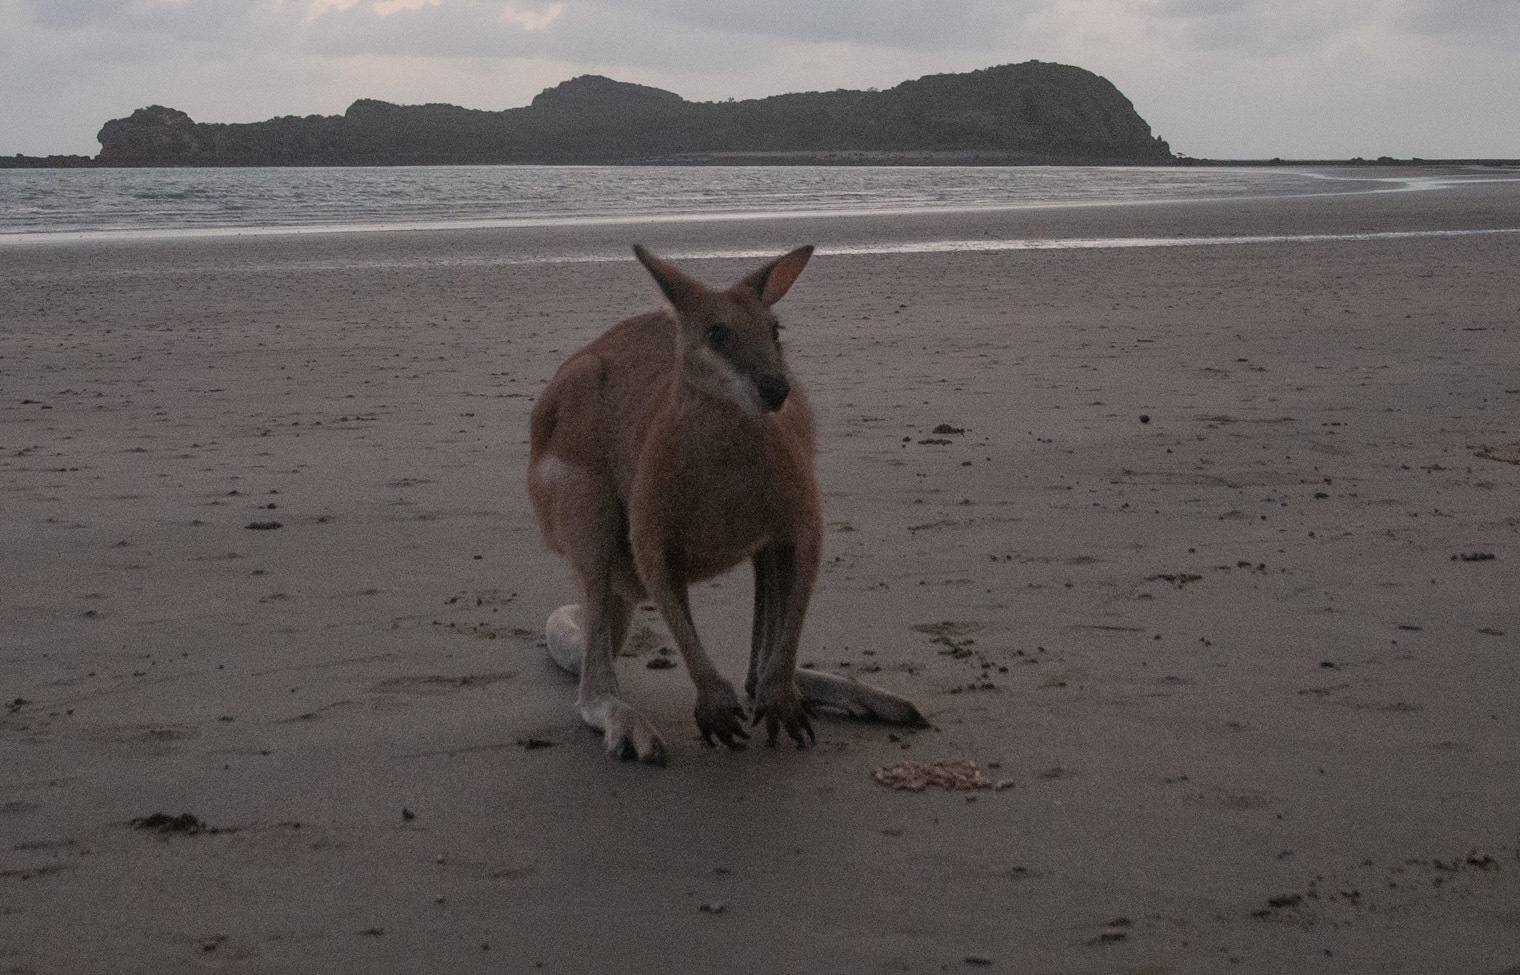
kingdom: Animalia
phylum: Chordata
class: Mammalia
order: Diprotodontia
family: Macropodidae
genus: Macropus
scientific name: Macropus agilis
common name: Agile wallaby
